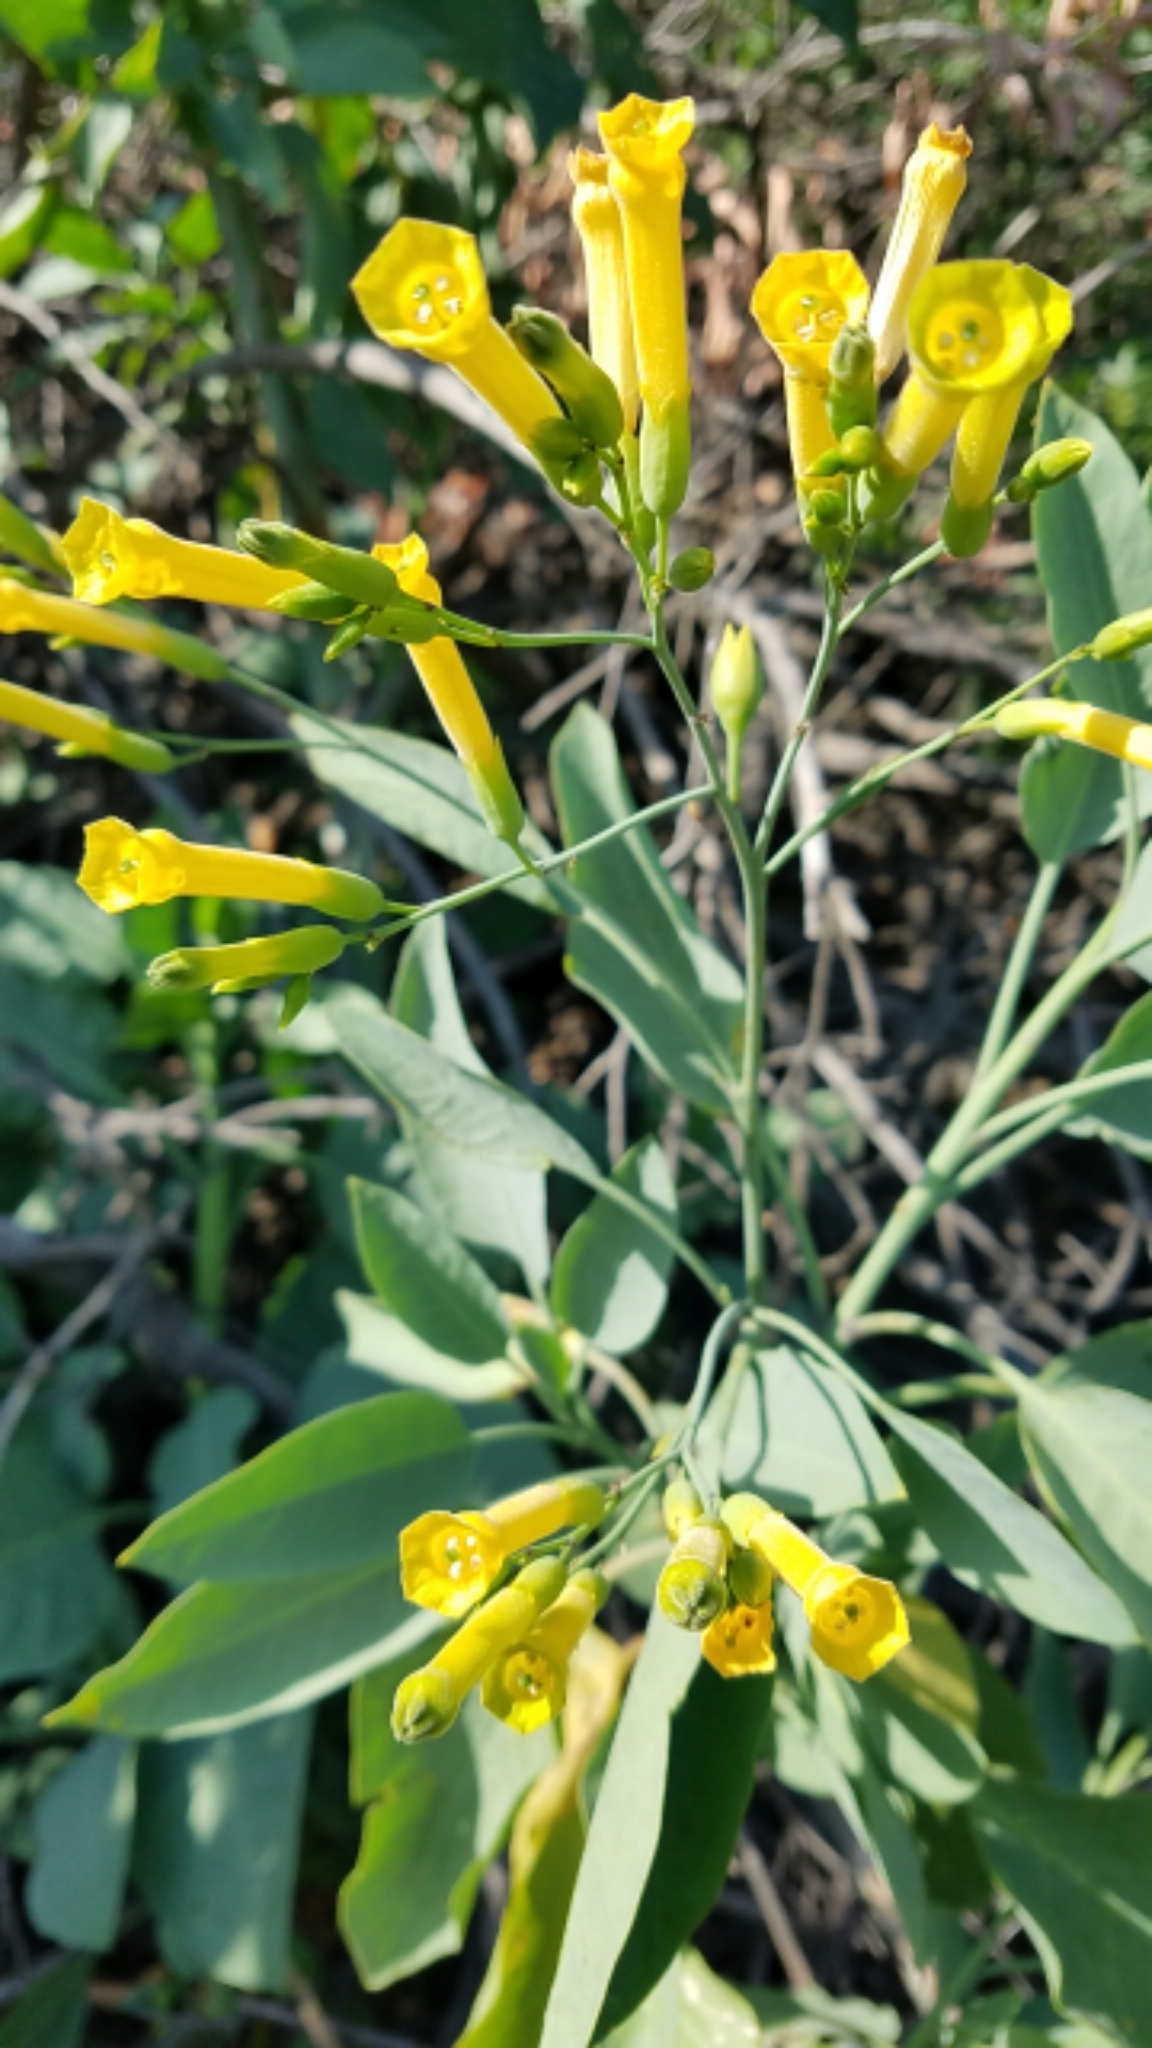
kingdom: Plantae
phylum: Tracheophyta
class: Magnoliopsida
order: Solanales
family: Solanaceae
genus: Nicotiana
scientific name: Nicotiana glauca
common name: Tree tobacco
